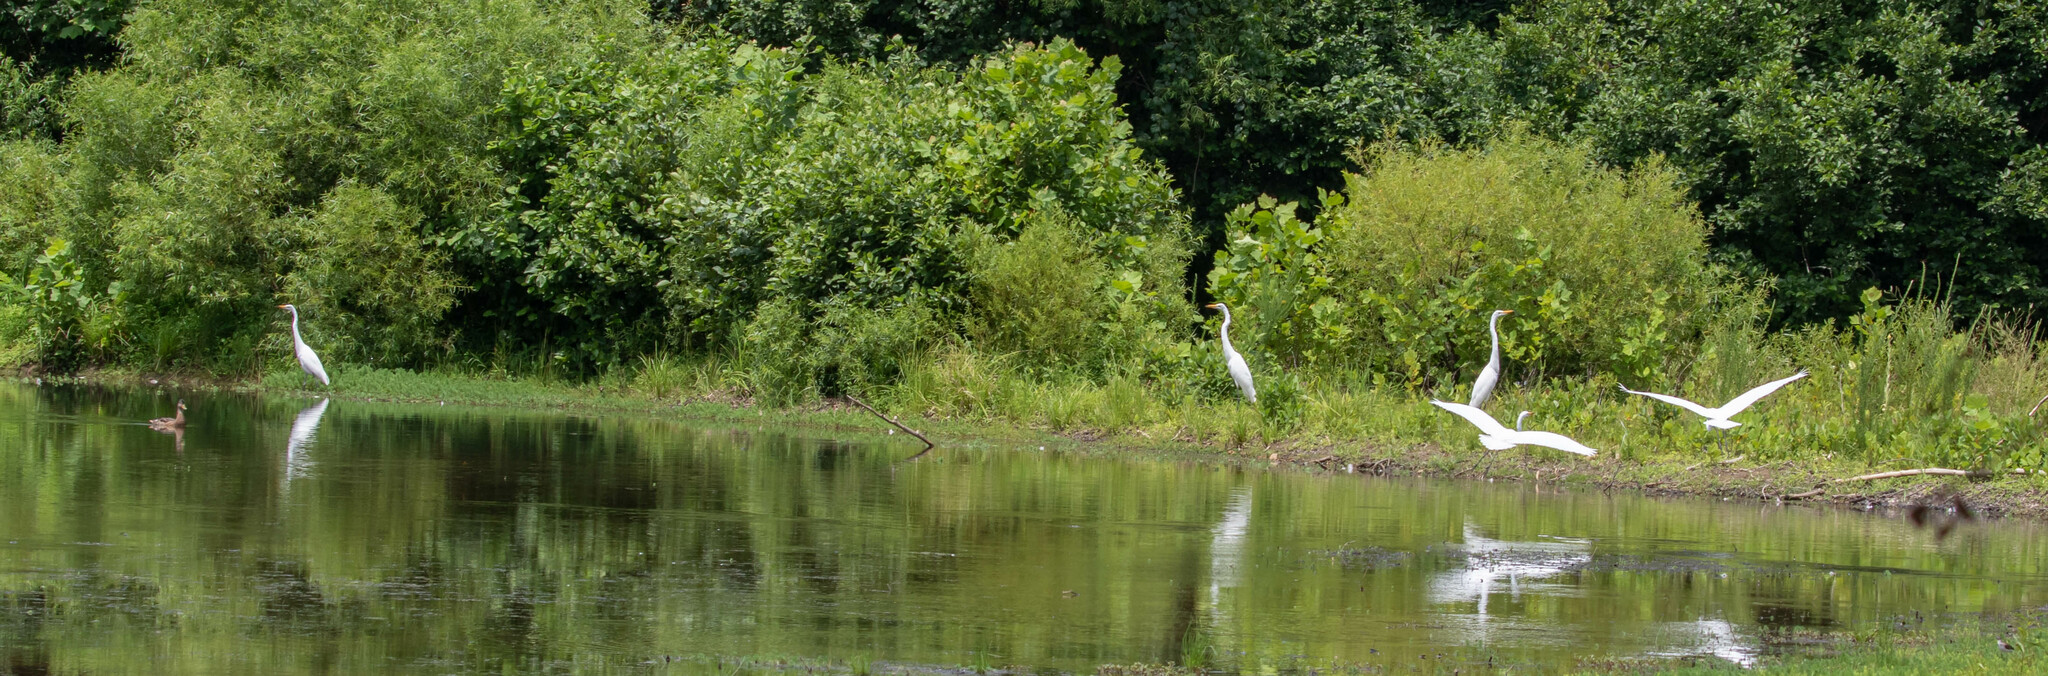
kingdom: Animalia
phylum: Chordata
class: Aves
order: Pelecaniformes
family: Ardeidae
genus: Ardea
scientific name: Ardea alba
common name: Great egret
